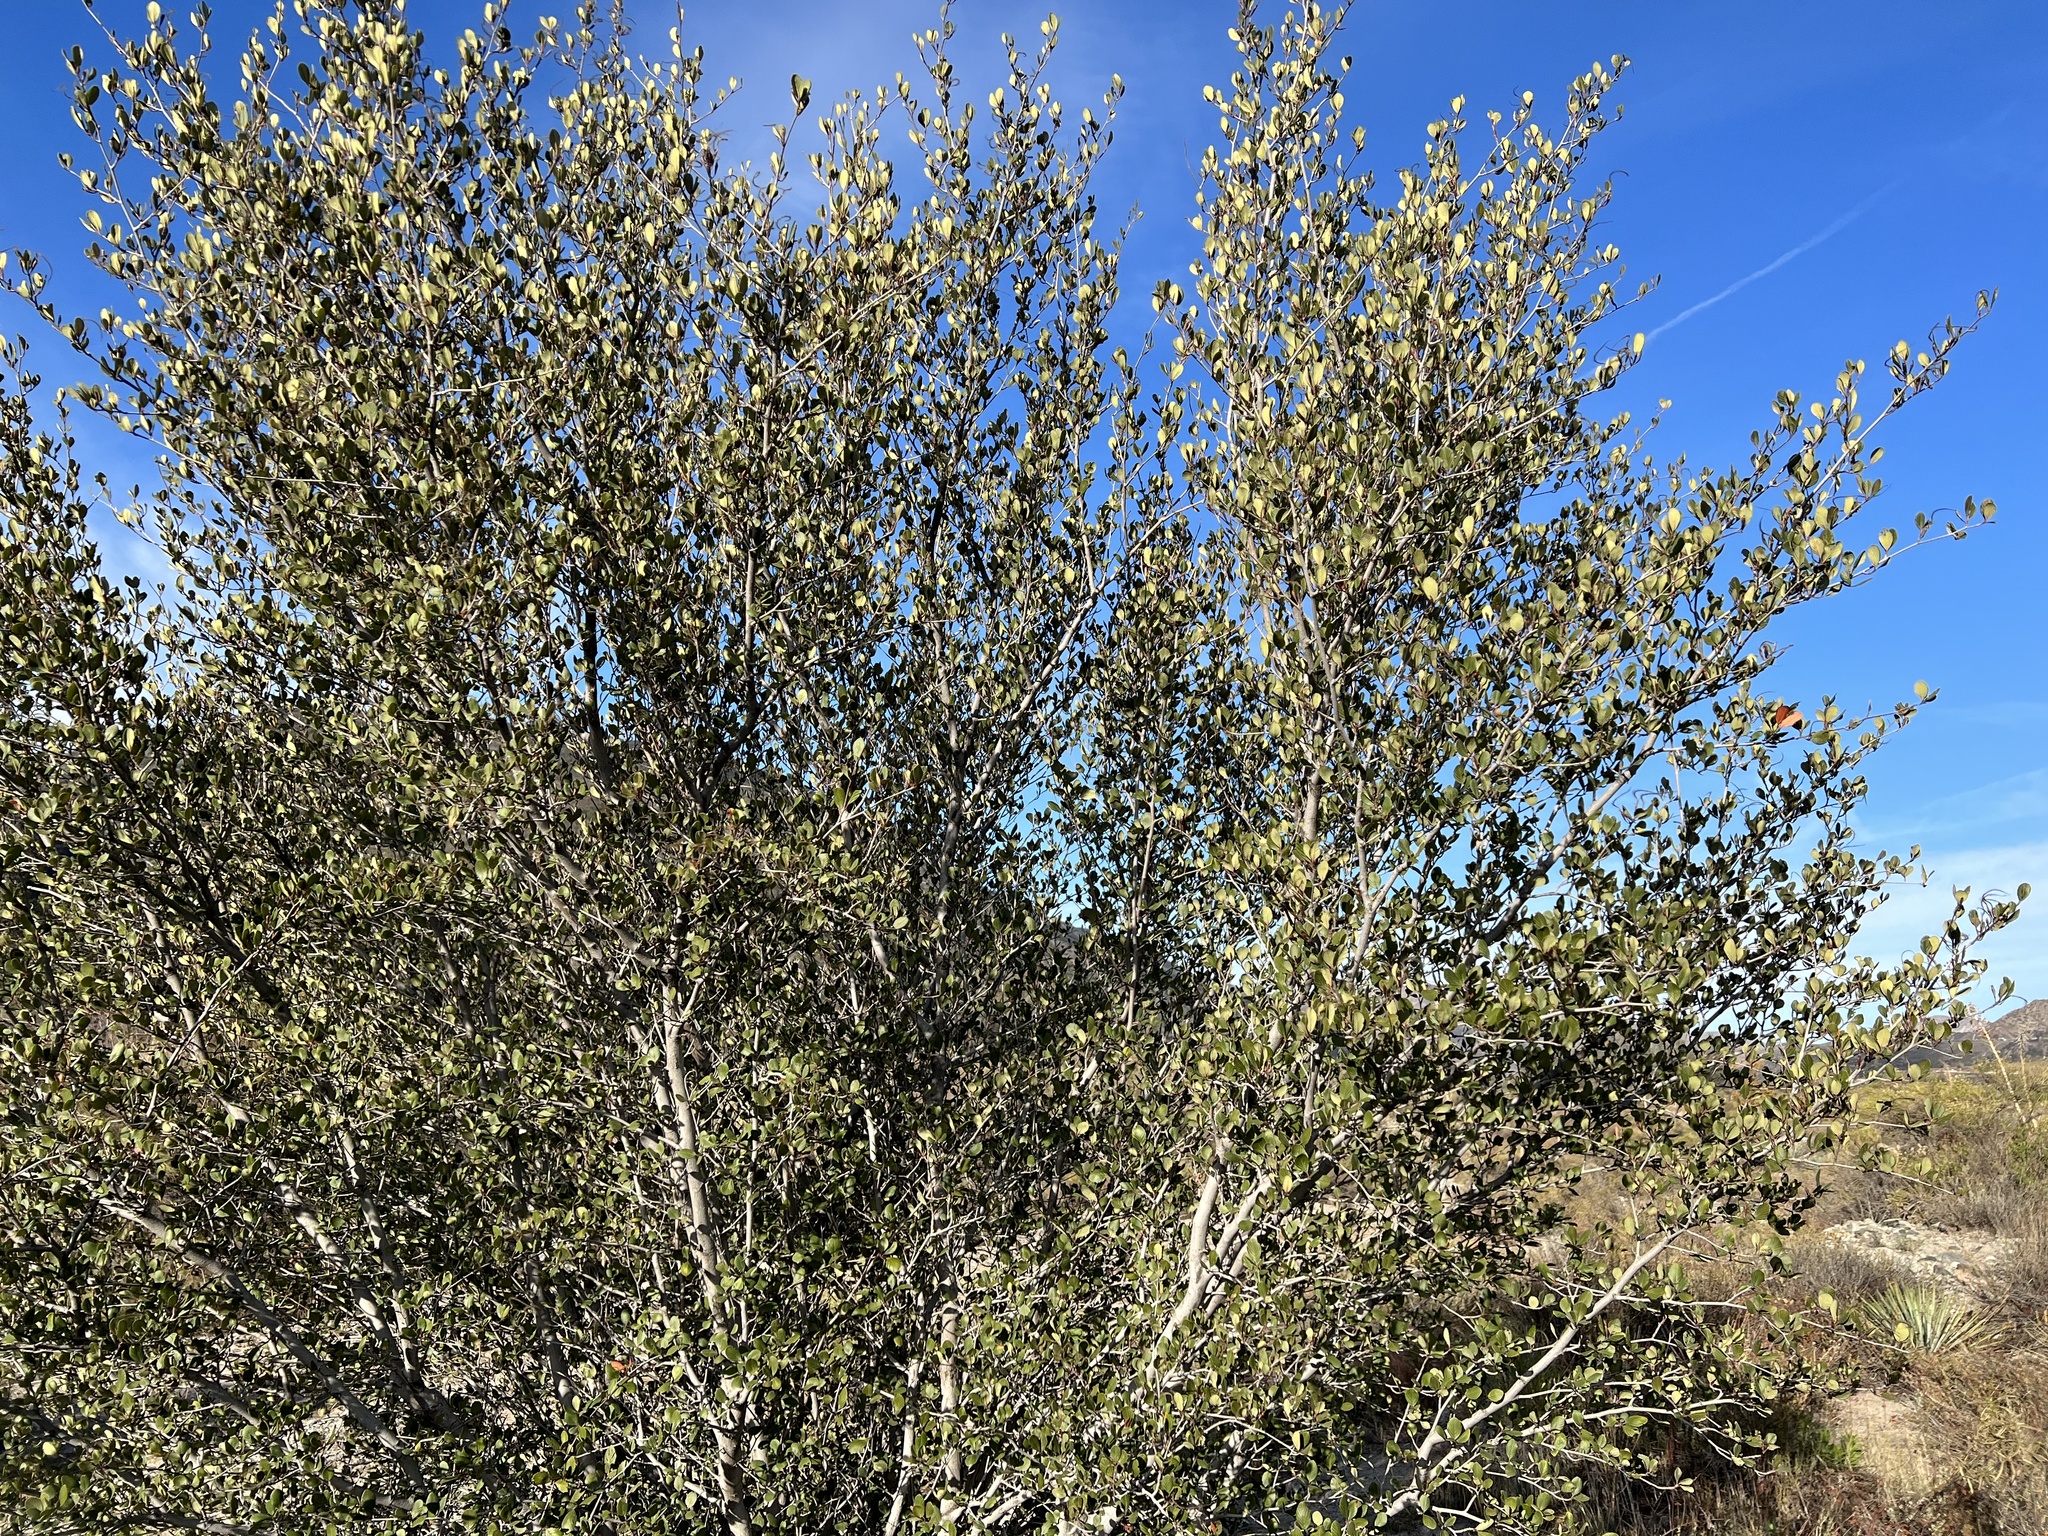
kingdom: Plantae
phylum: Tracheophyta
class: Magnoliopsida
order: Rosales
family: Rosaceae
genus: Cercocarpus
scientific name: Cercocarpus betuloides
